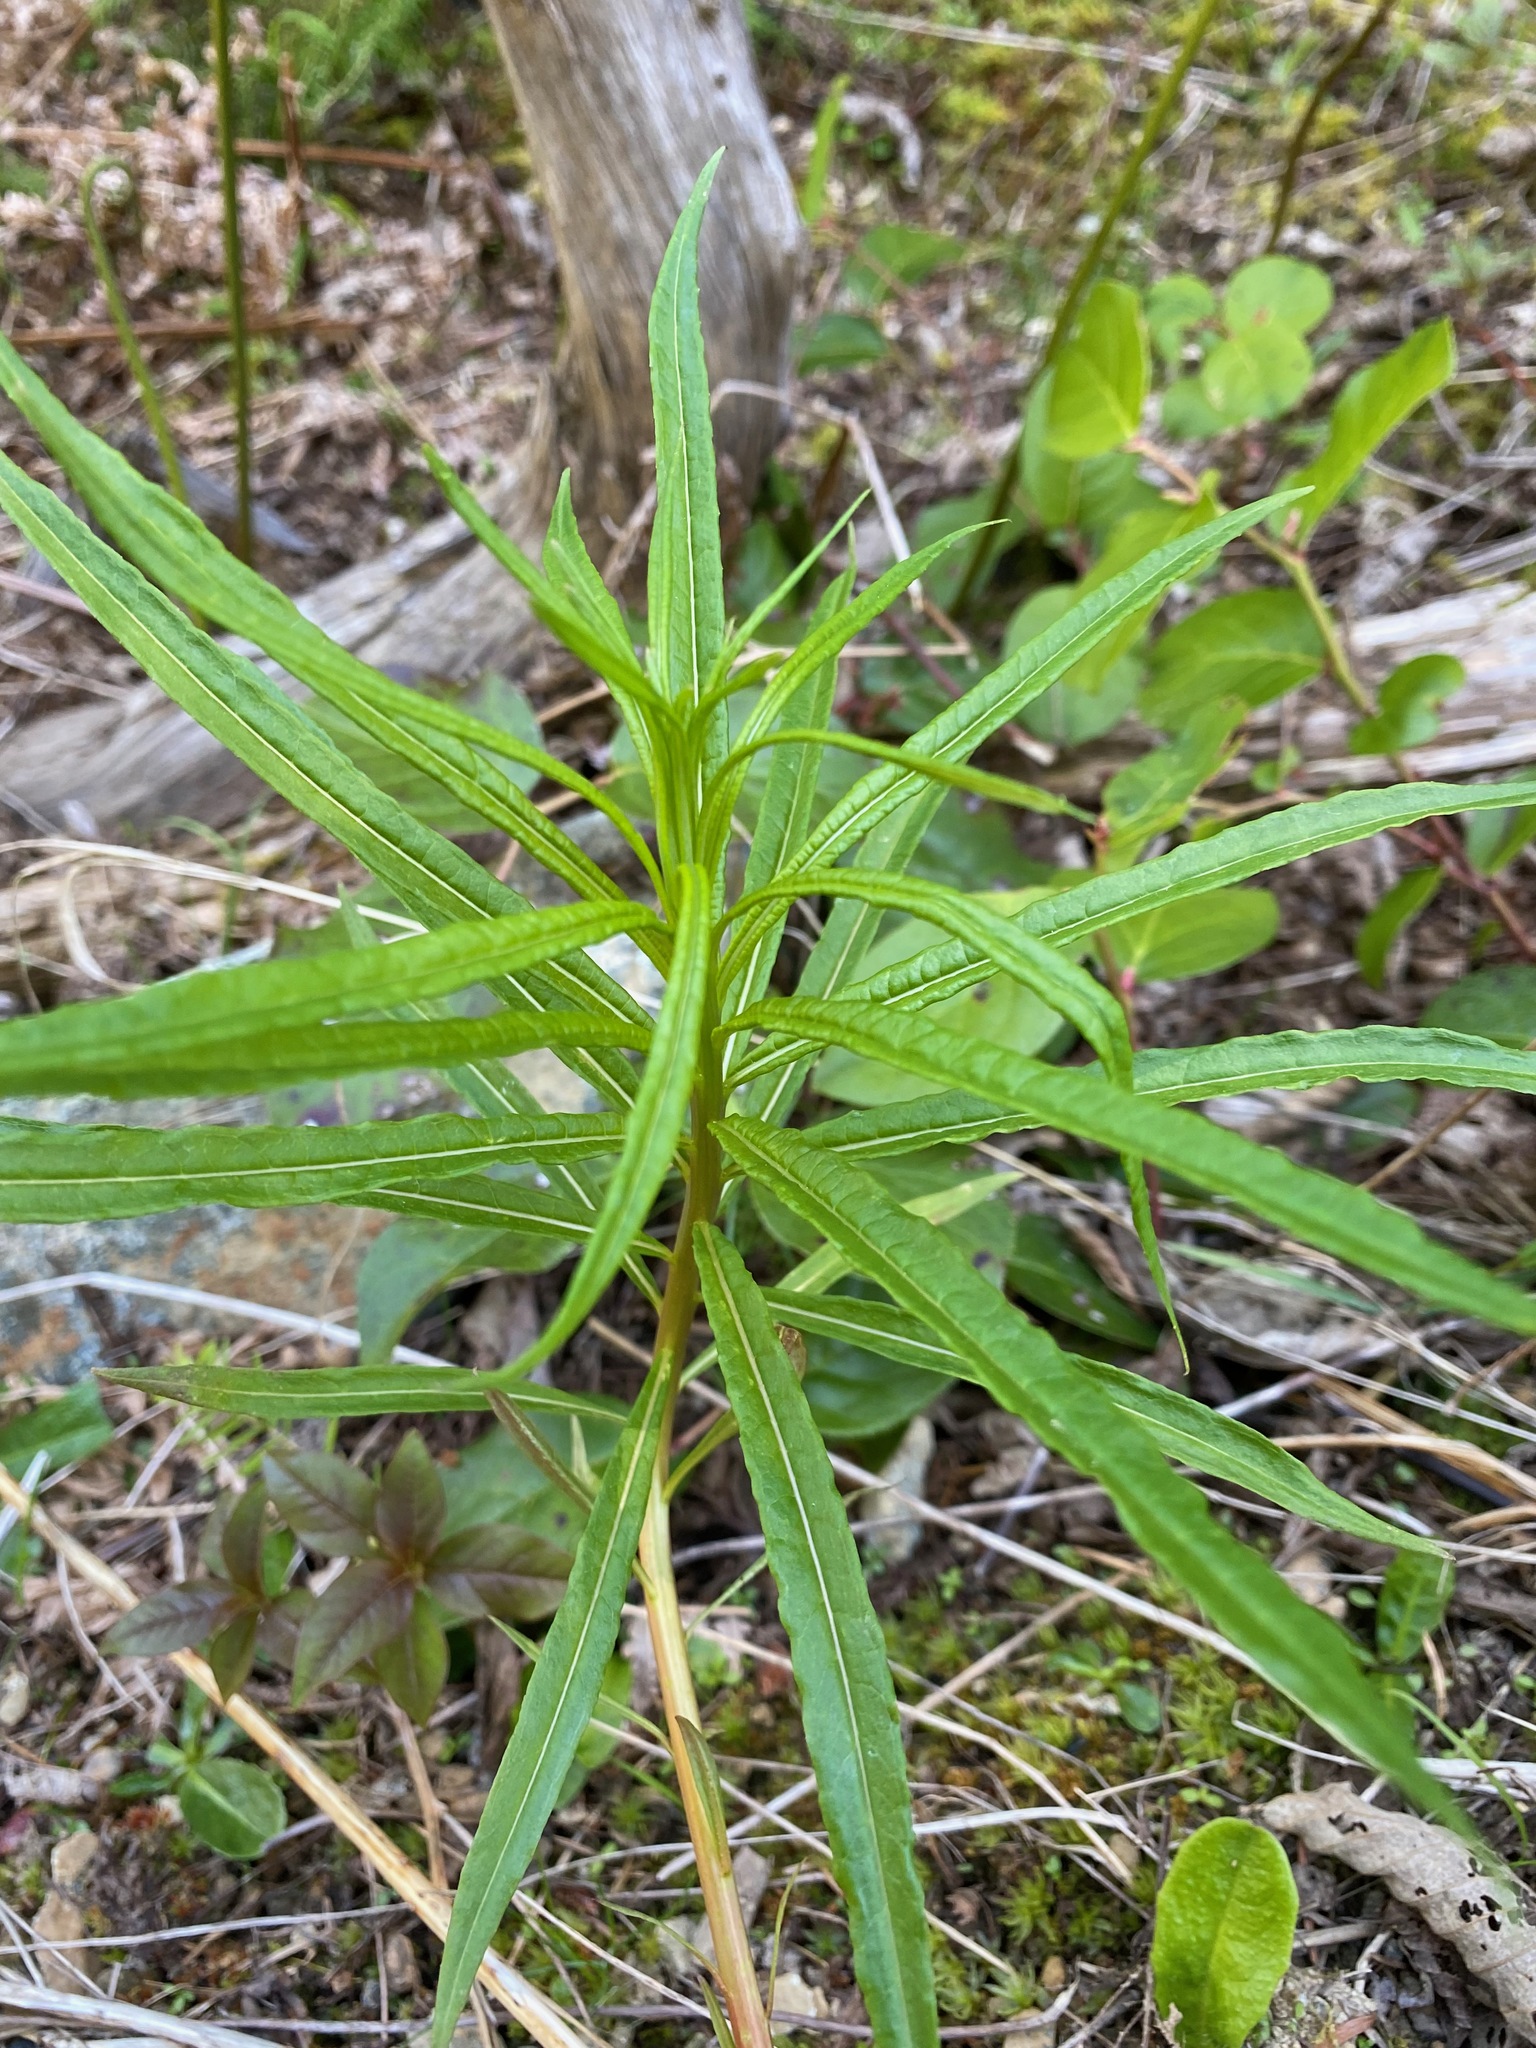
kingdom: Plantae
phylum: Tracheophyta
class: Magnoliopsida
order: Myrtales
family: Onagraceae
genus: Chamaenerion
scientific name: Chamaenerion angustifolium
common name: Fireweed
